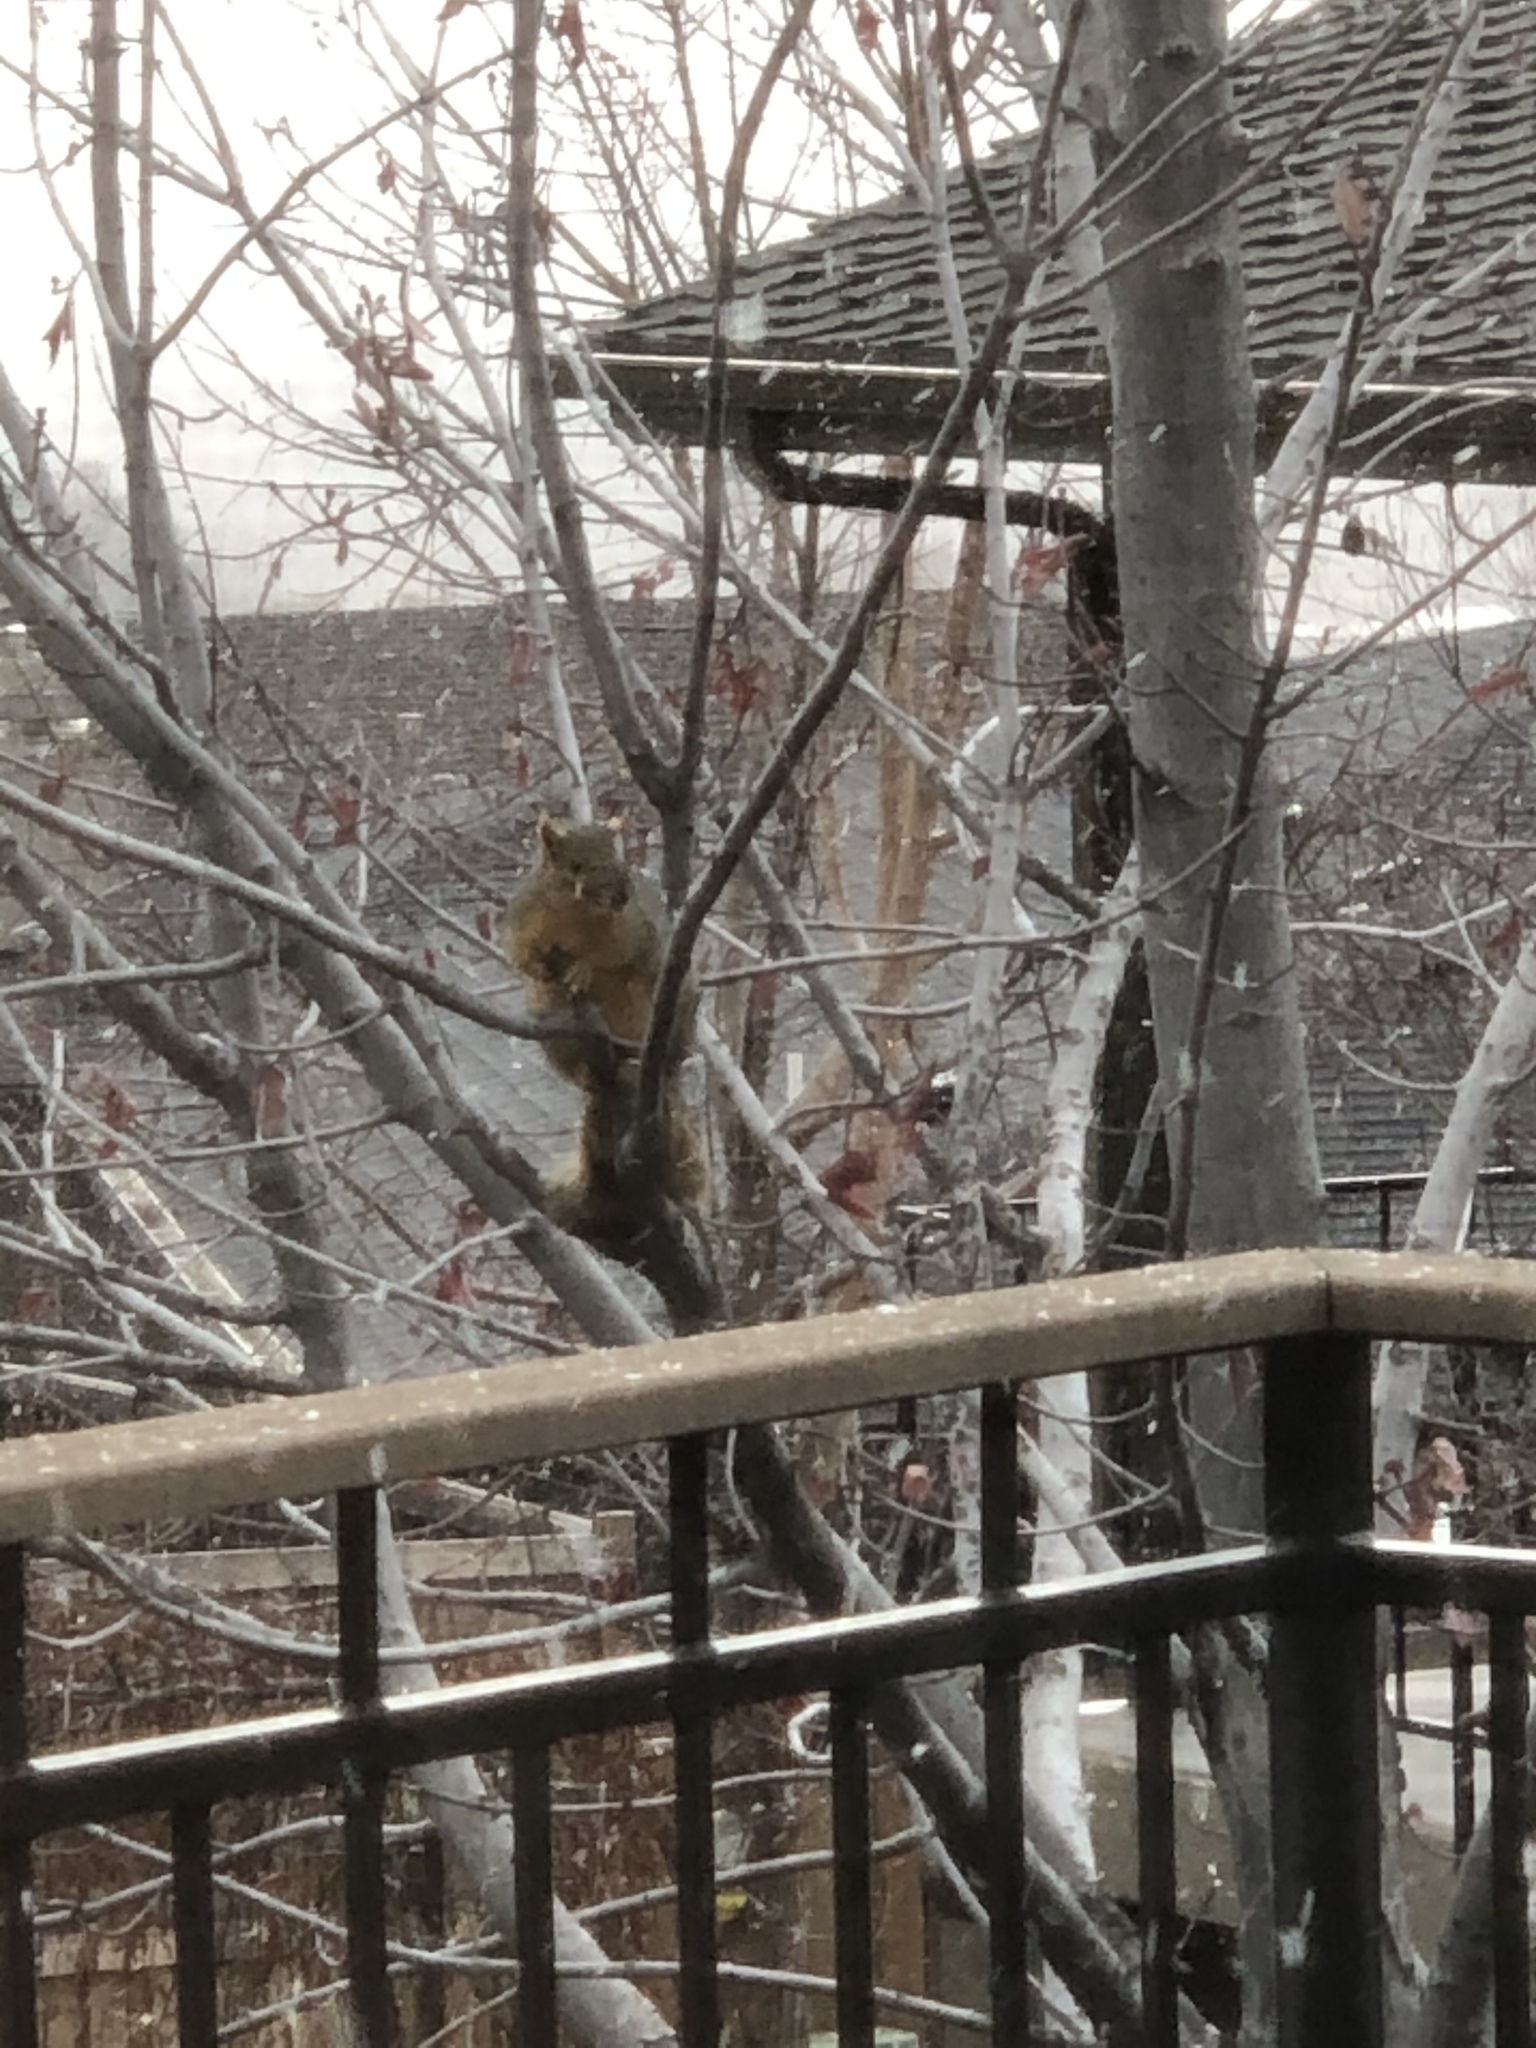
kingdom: Animalia
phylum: Chordata
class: Mammalia
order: Rodentia
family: Sciuridae
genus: Sciurus
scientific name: Sciurus niger
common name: Fox squirrel
